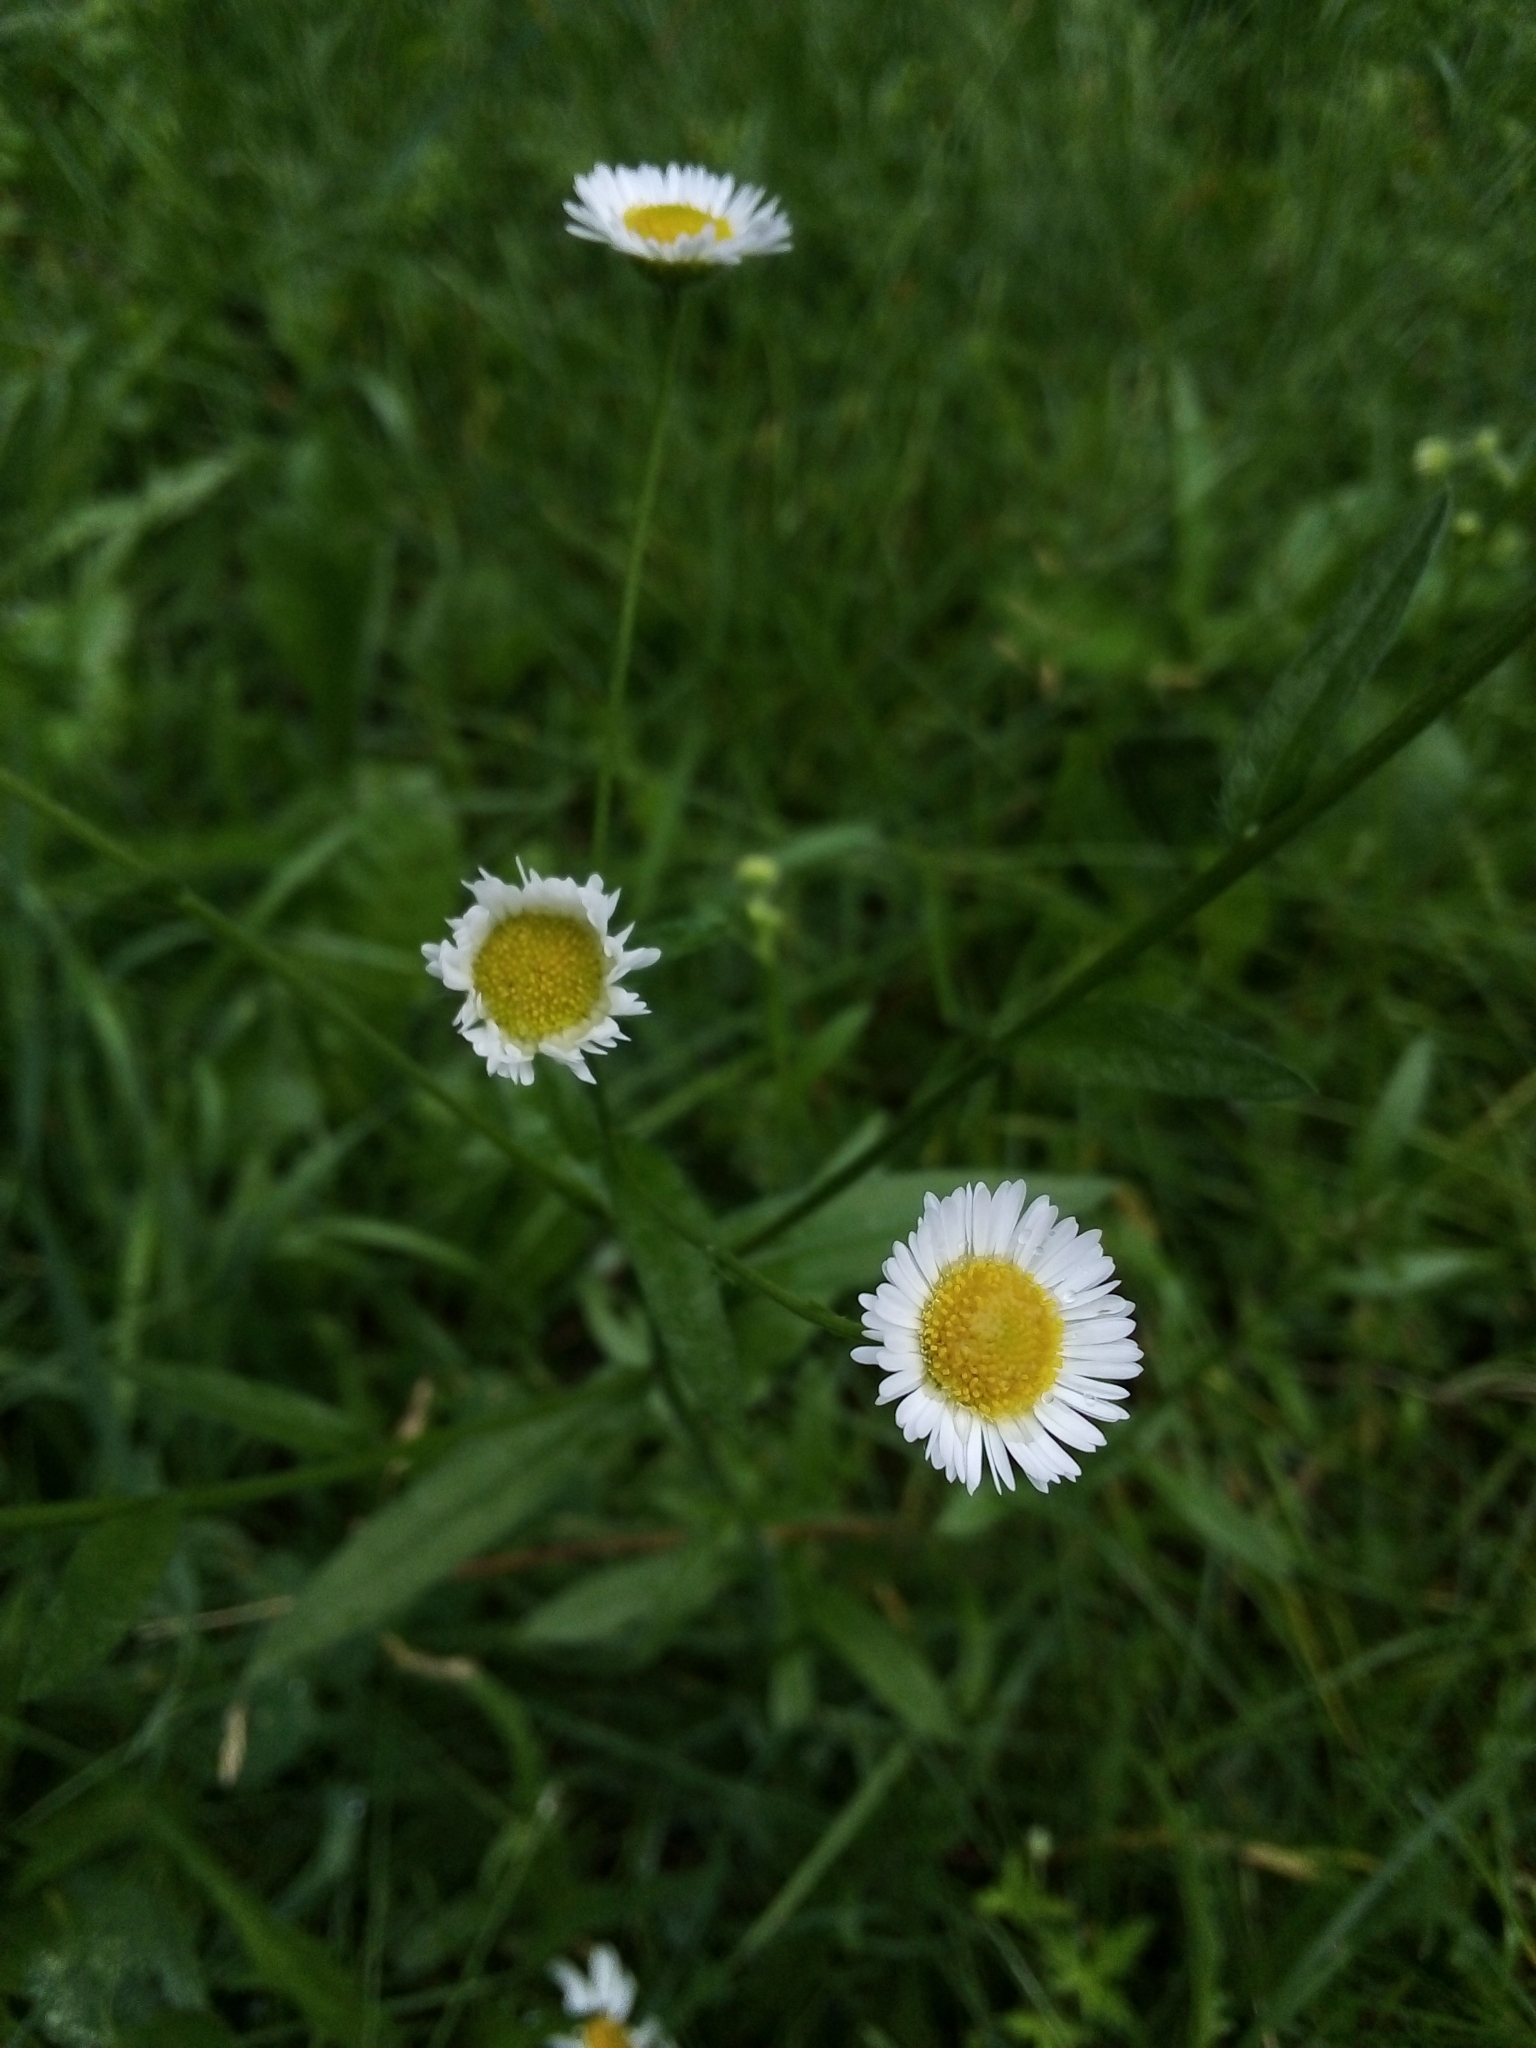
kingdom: Plantae
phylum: Tracheophyta
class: Magnoliopsida
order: Asterales
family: Asteraceae
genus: Erigeron
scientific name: Erigeron annuus
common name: Tall fleabane
